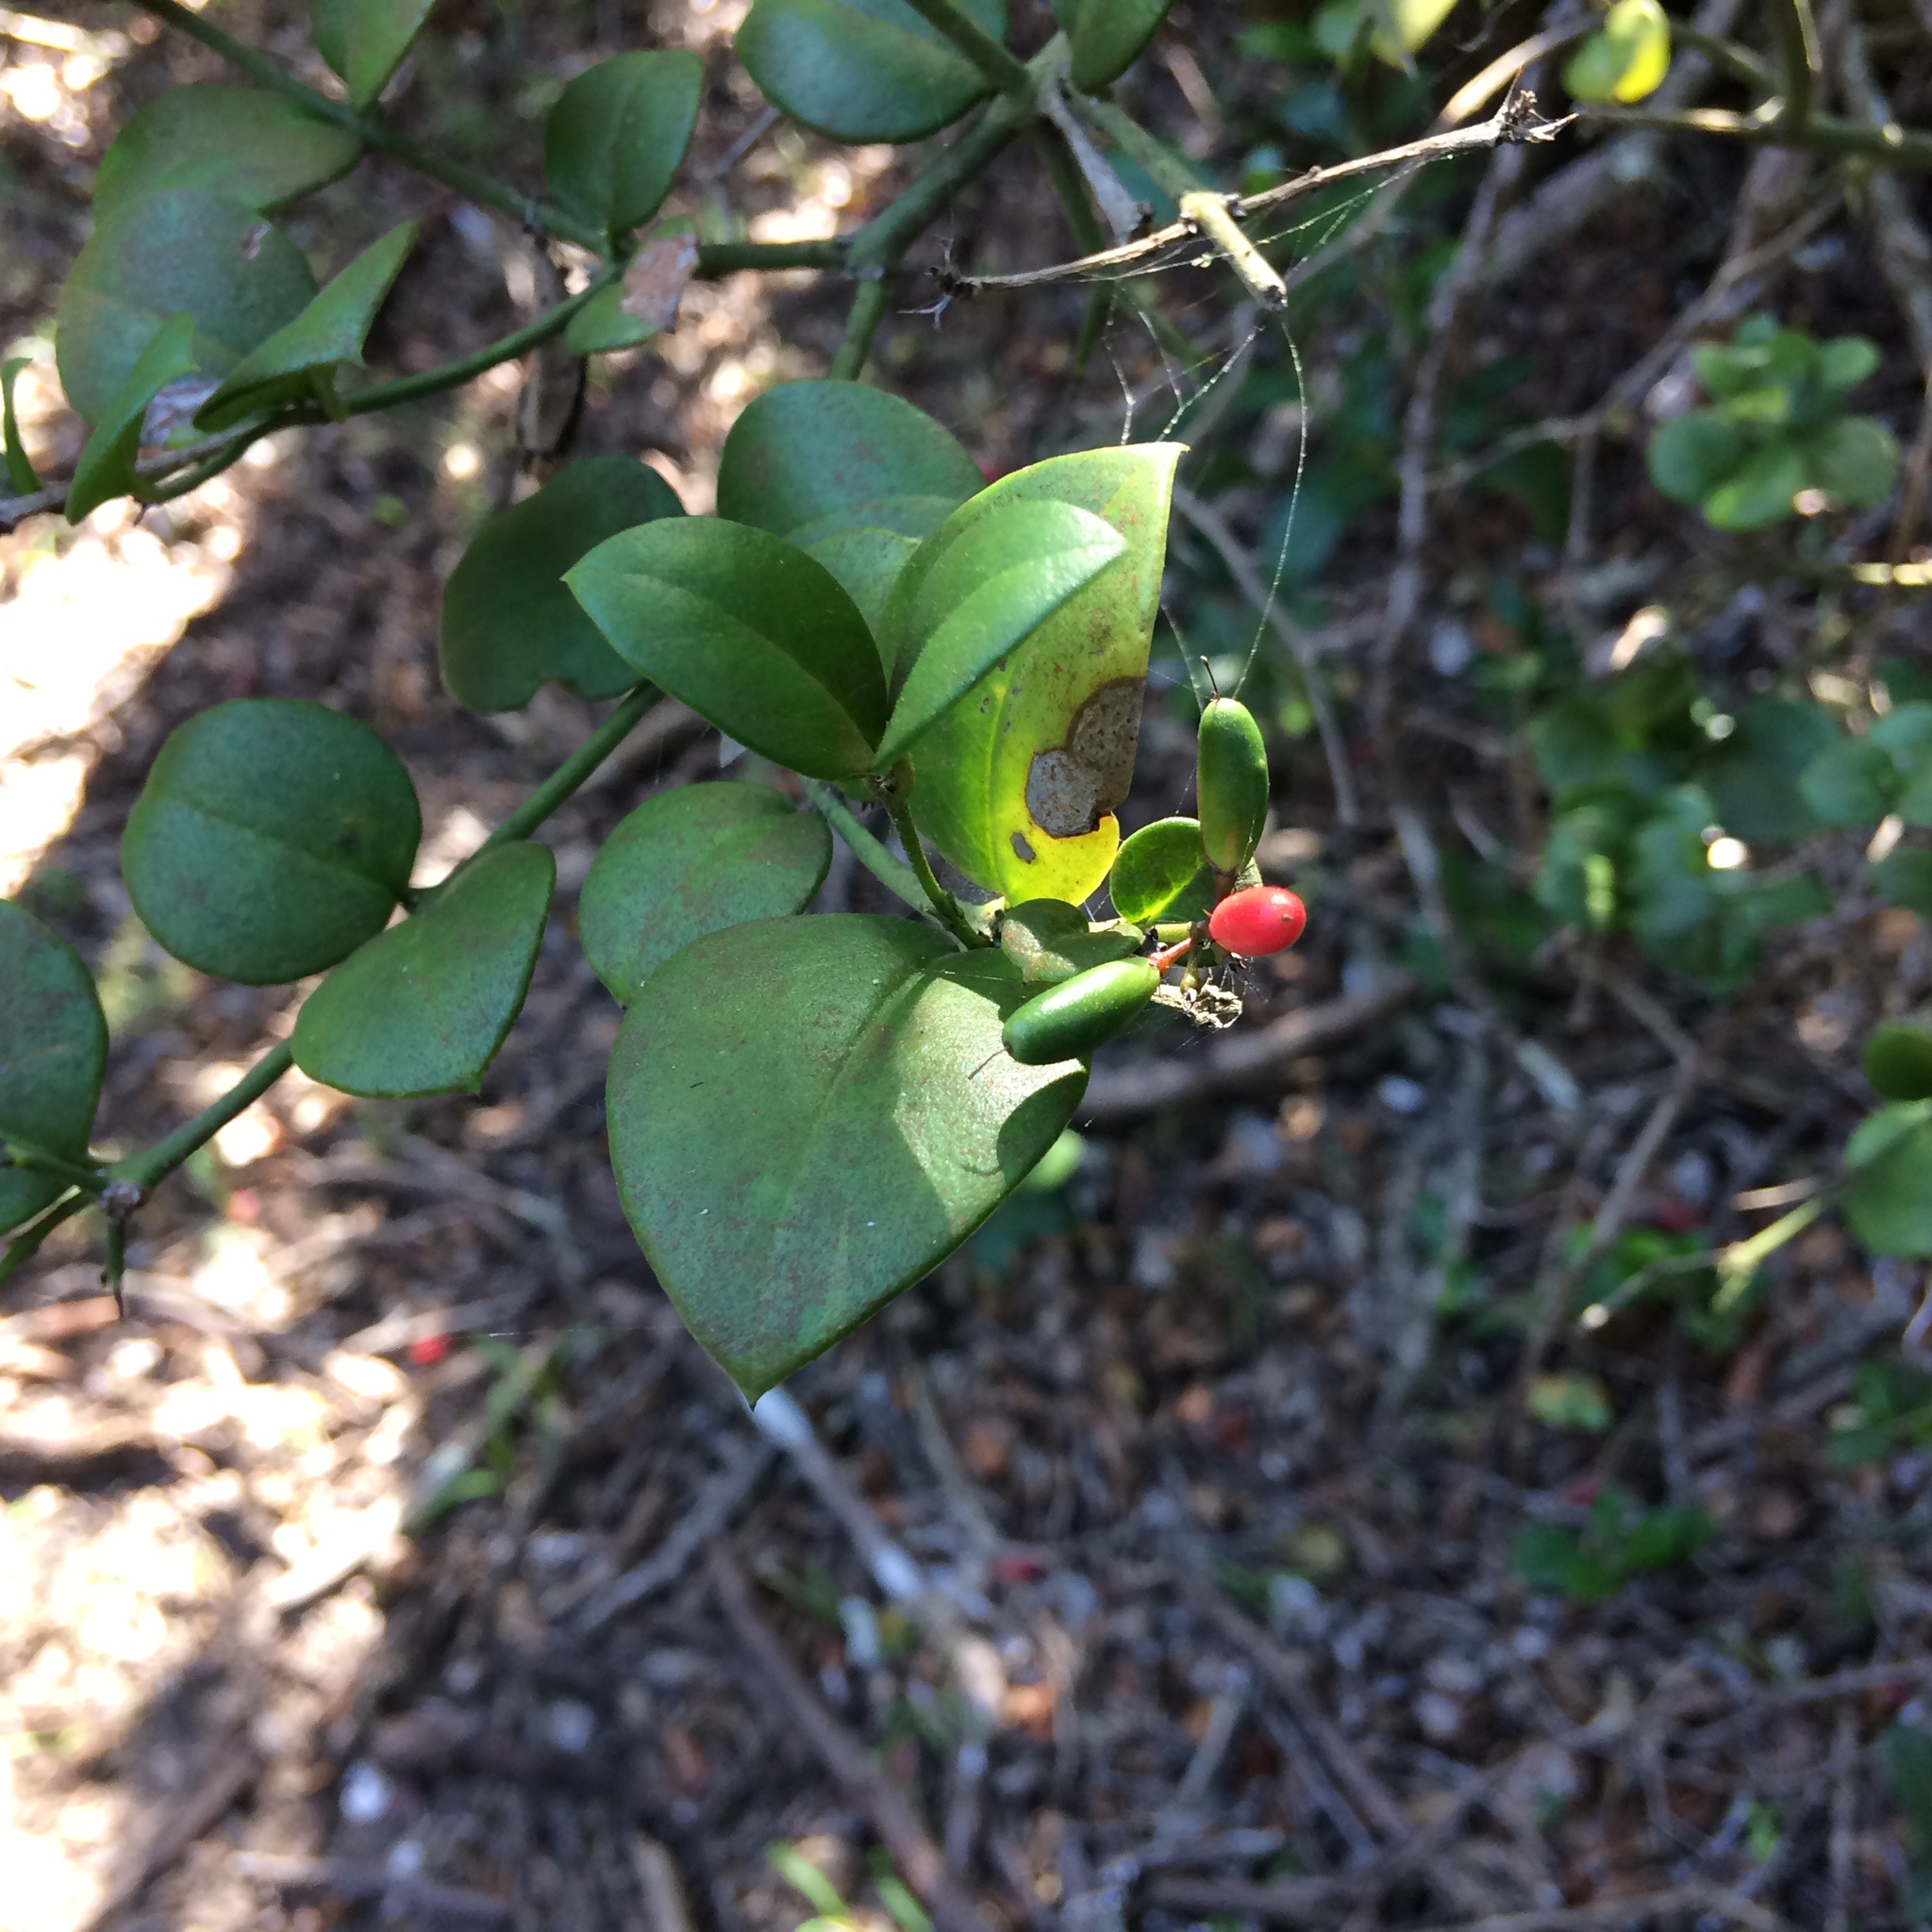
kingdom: Plantae
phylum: Tracheophyta
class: Magnoliopsida
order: Gentianales
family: Apocynaceae
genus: Carissa
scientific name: Carissa bispinosa
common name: Forest num-num
